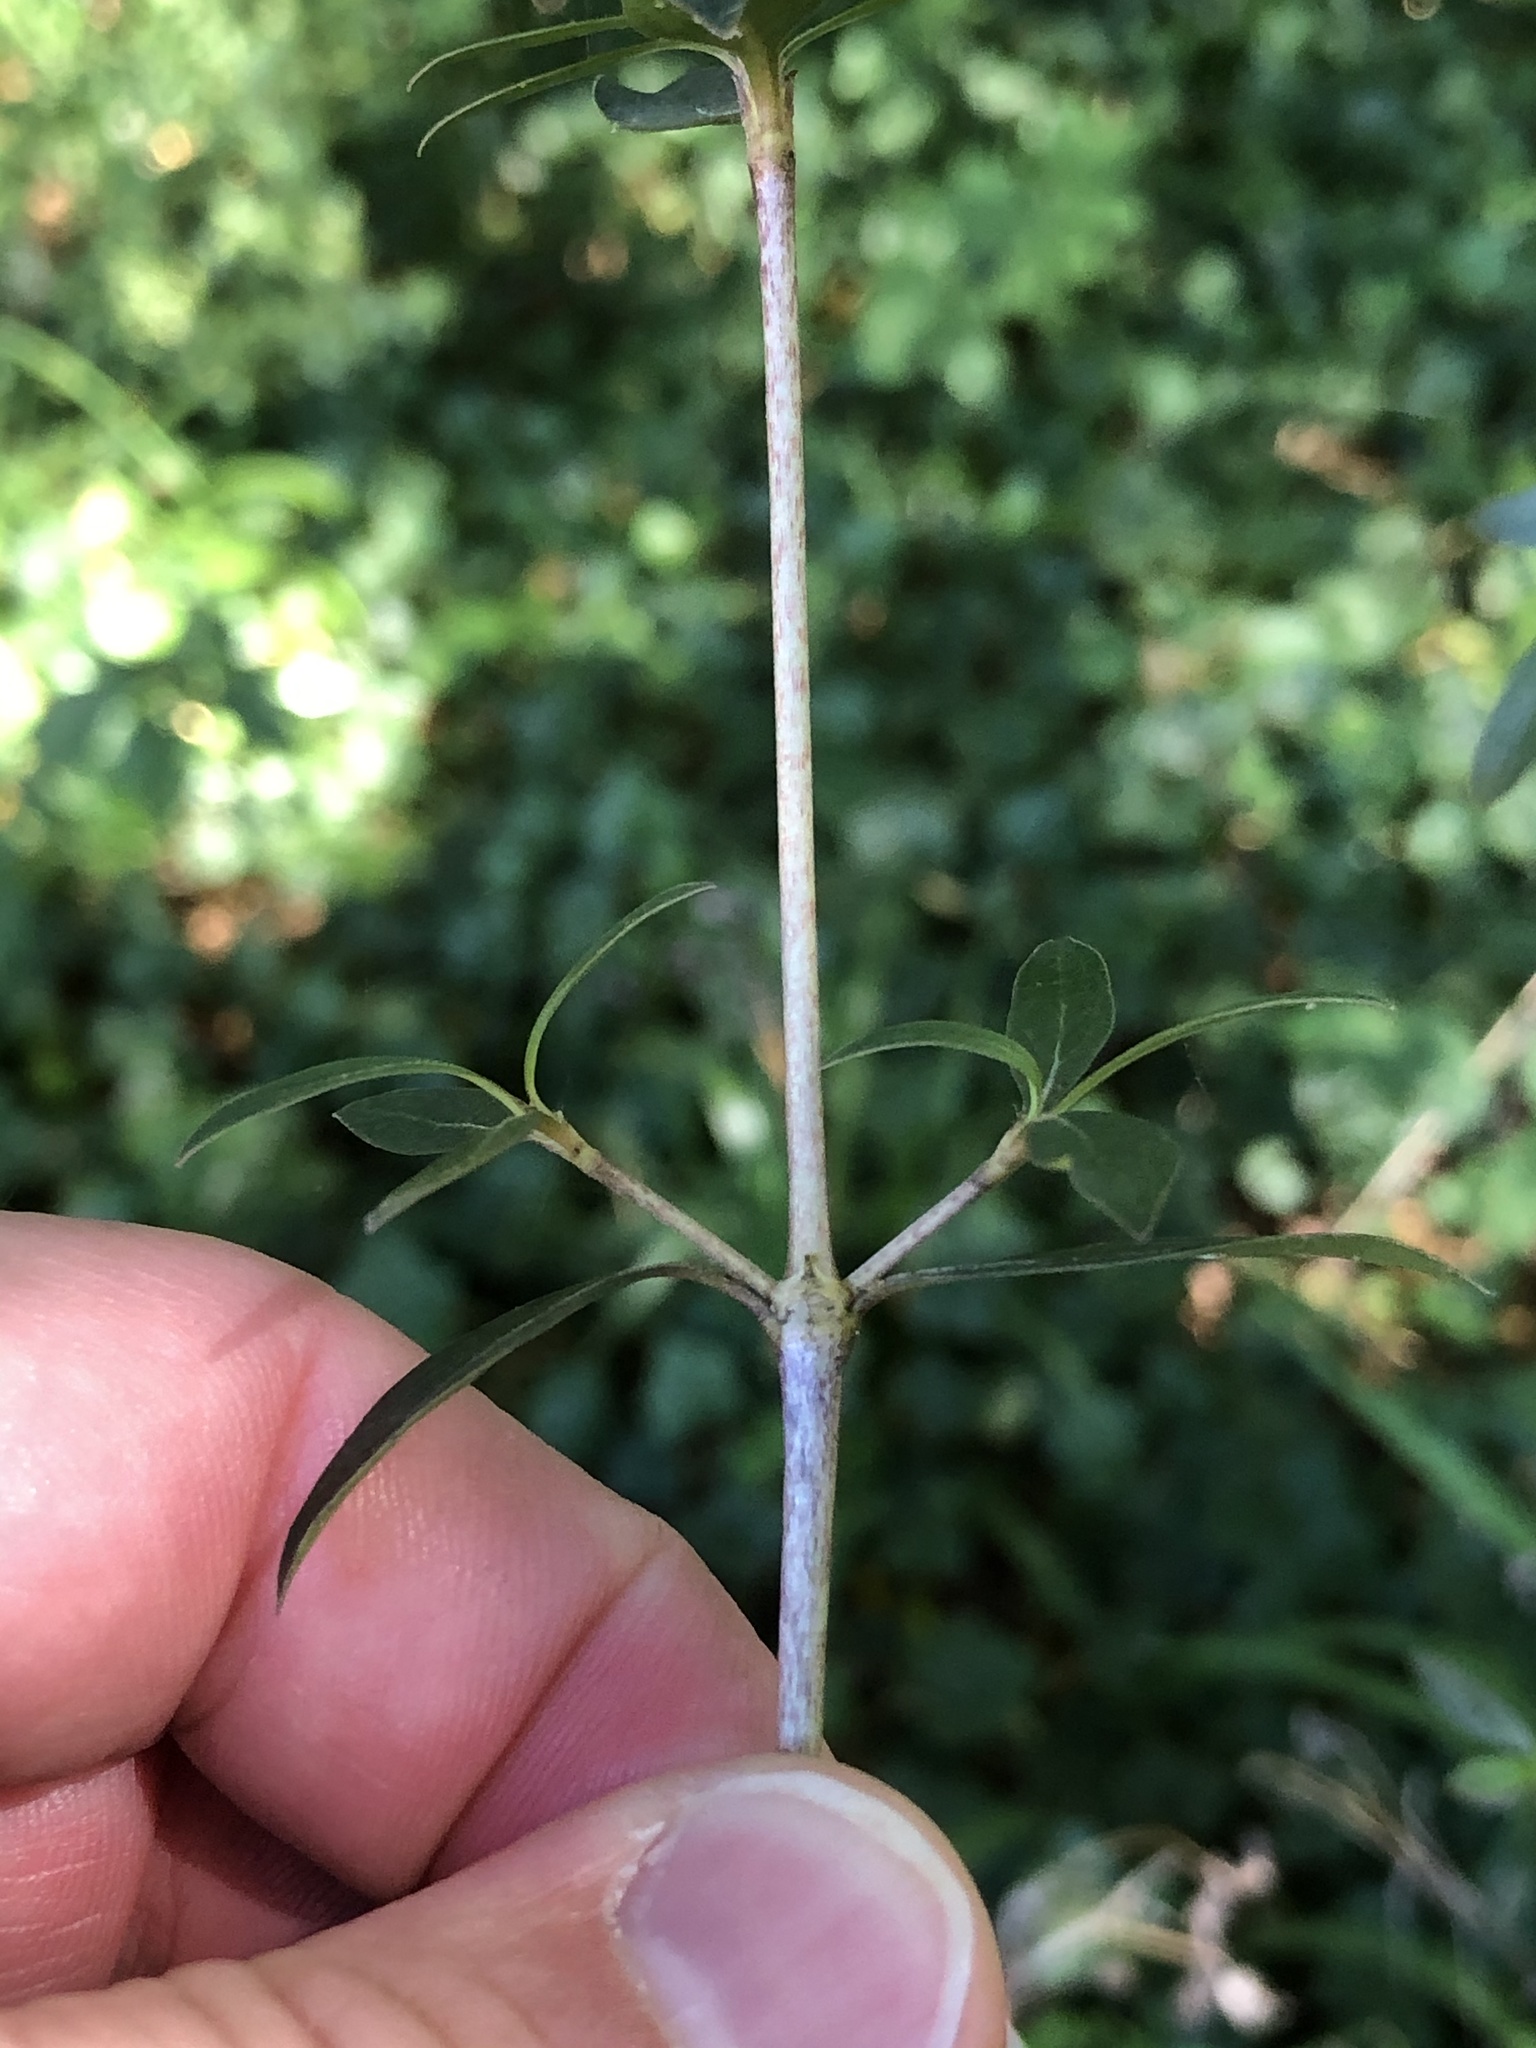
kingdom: Plantae
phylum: Tracheophyta
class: Magnoliopsida
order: Gentianales
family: Rubiaceae
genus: Coprosma
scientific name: Coprosma cunninghamii
